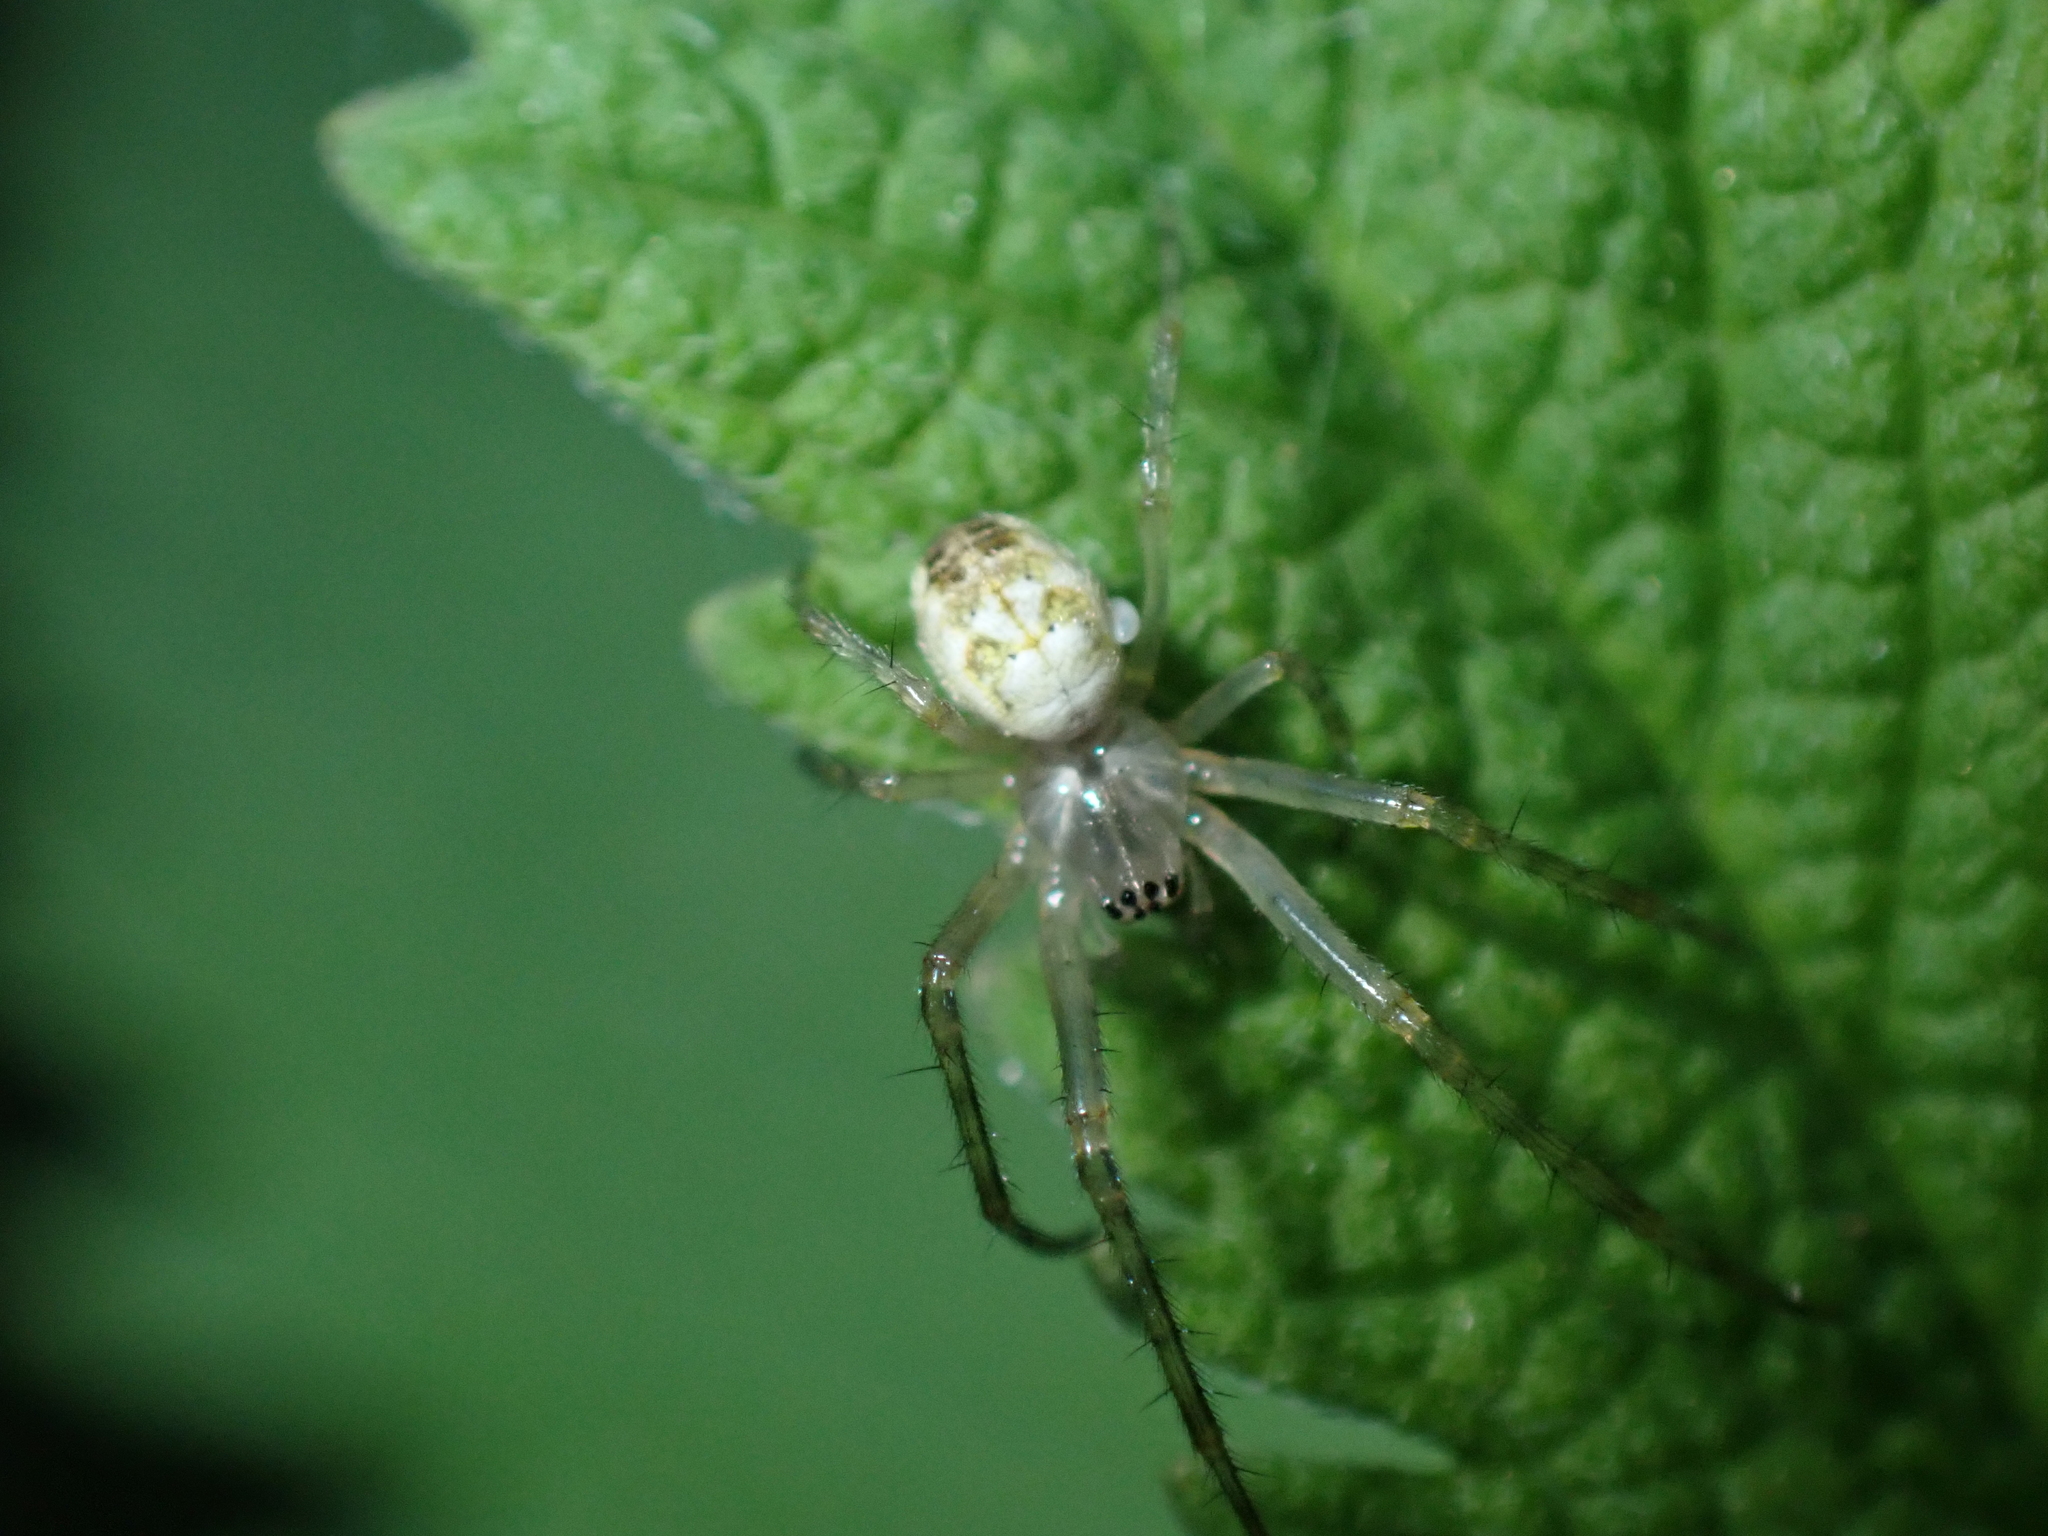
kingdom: Animalia
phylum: Arthropoda
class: Arachnida
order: Araneae
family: Tetragnathidae
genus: Metellina
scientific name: Metellina
